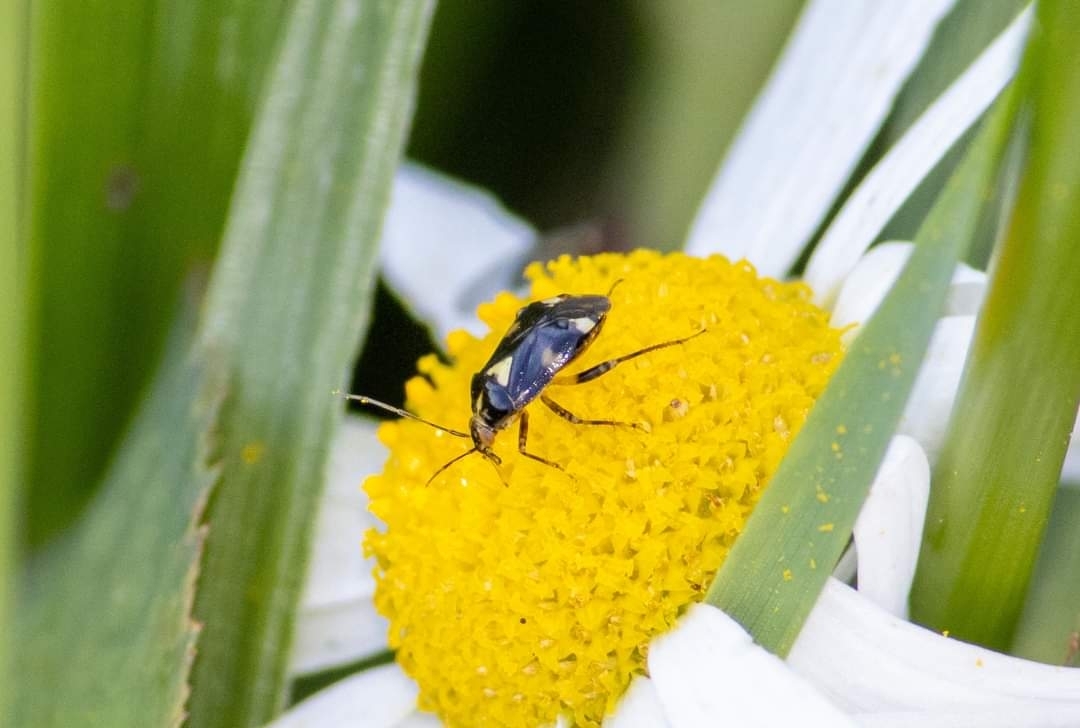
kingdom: Animalia
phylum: Arthropoda
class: Insecta
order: Hemiptera
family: Miridae
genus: Liocoris
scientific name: Liocoris tripustulatus
